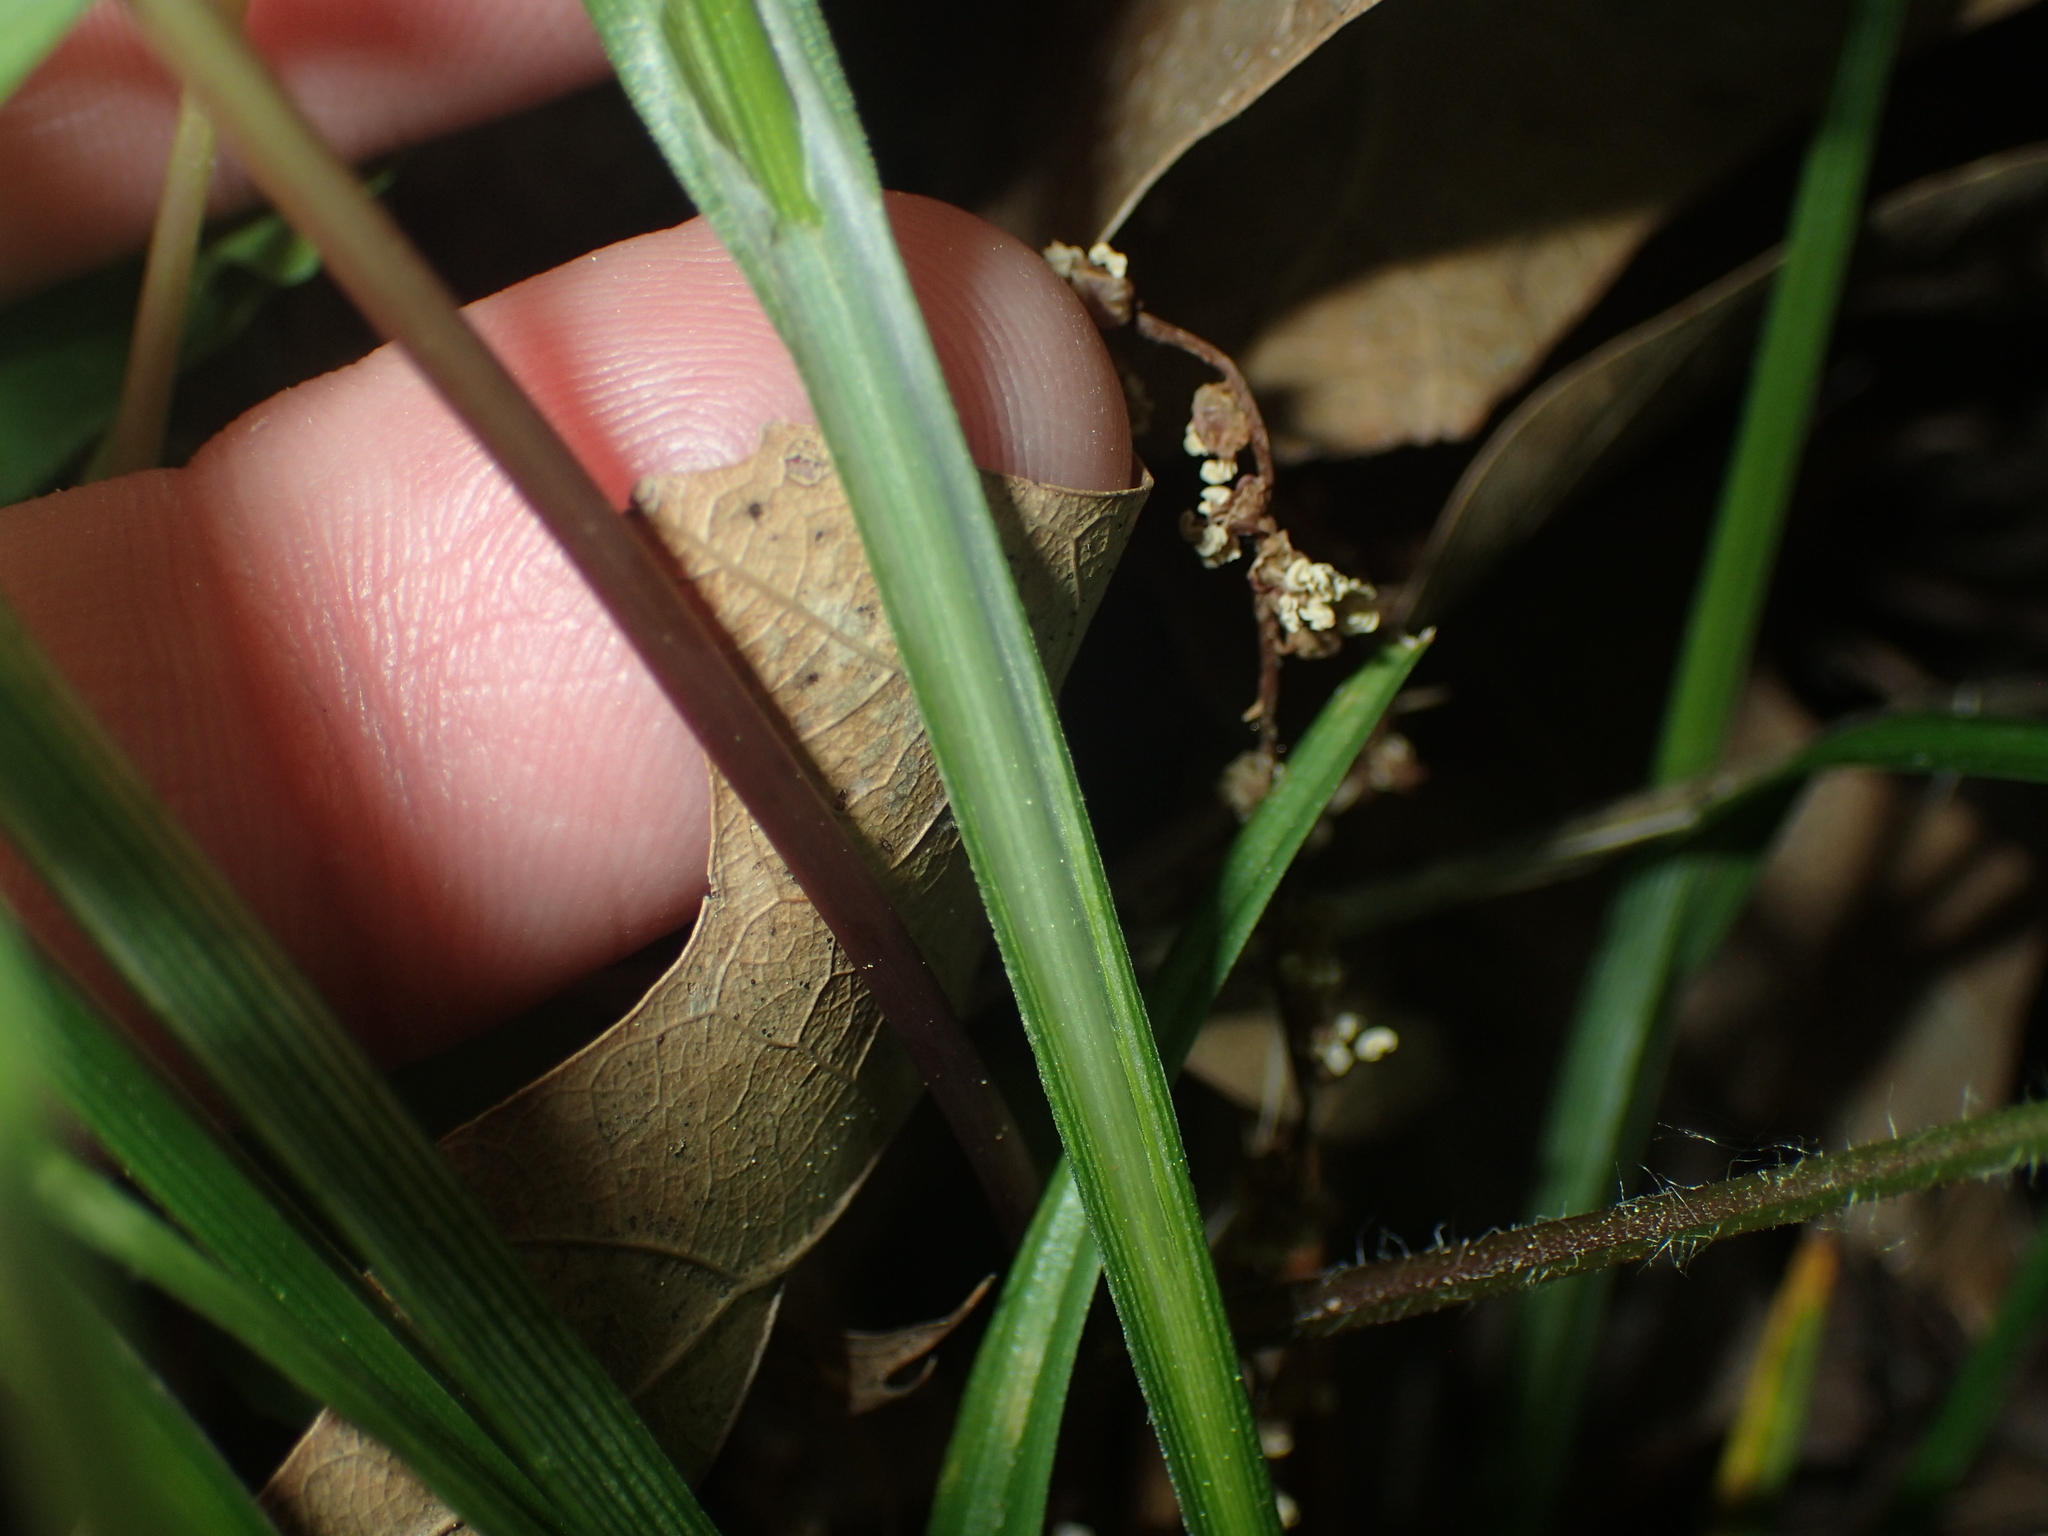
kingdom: Plantae
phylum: Tracheophyta
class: Liliopsida
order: Poales
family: Cyperaceae
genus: Carex
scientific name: Carex blanda
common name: Bland sedge
